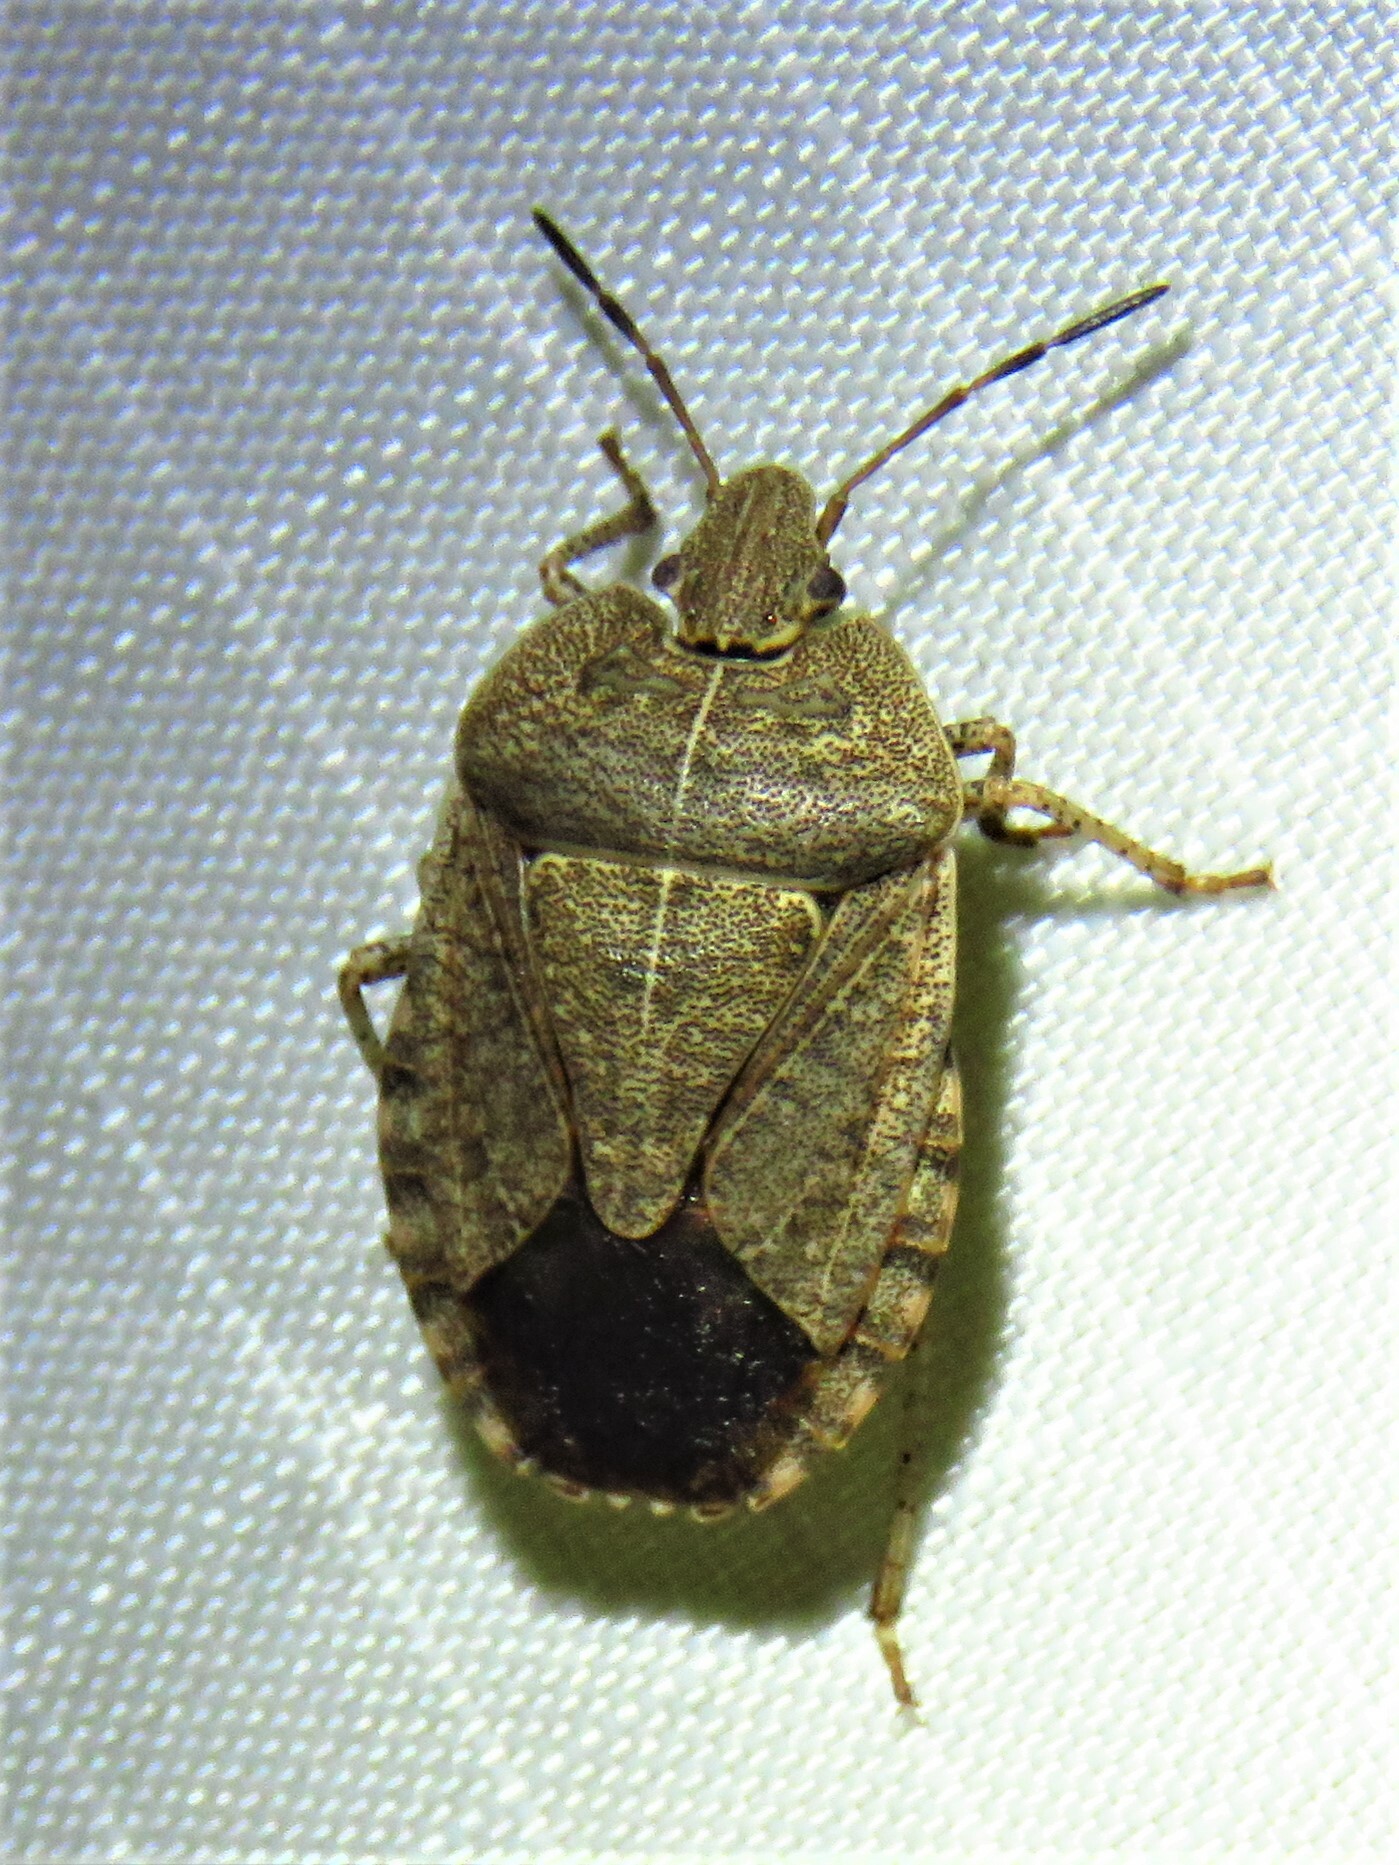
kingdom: Animalia
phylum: Arthropoda
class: Insecta
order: Hemiptera
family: Pentatomidae
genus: Menecles
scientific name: Menecles insertus
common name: Elf shoe stink bug
